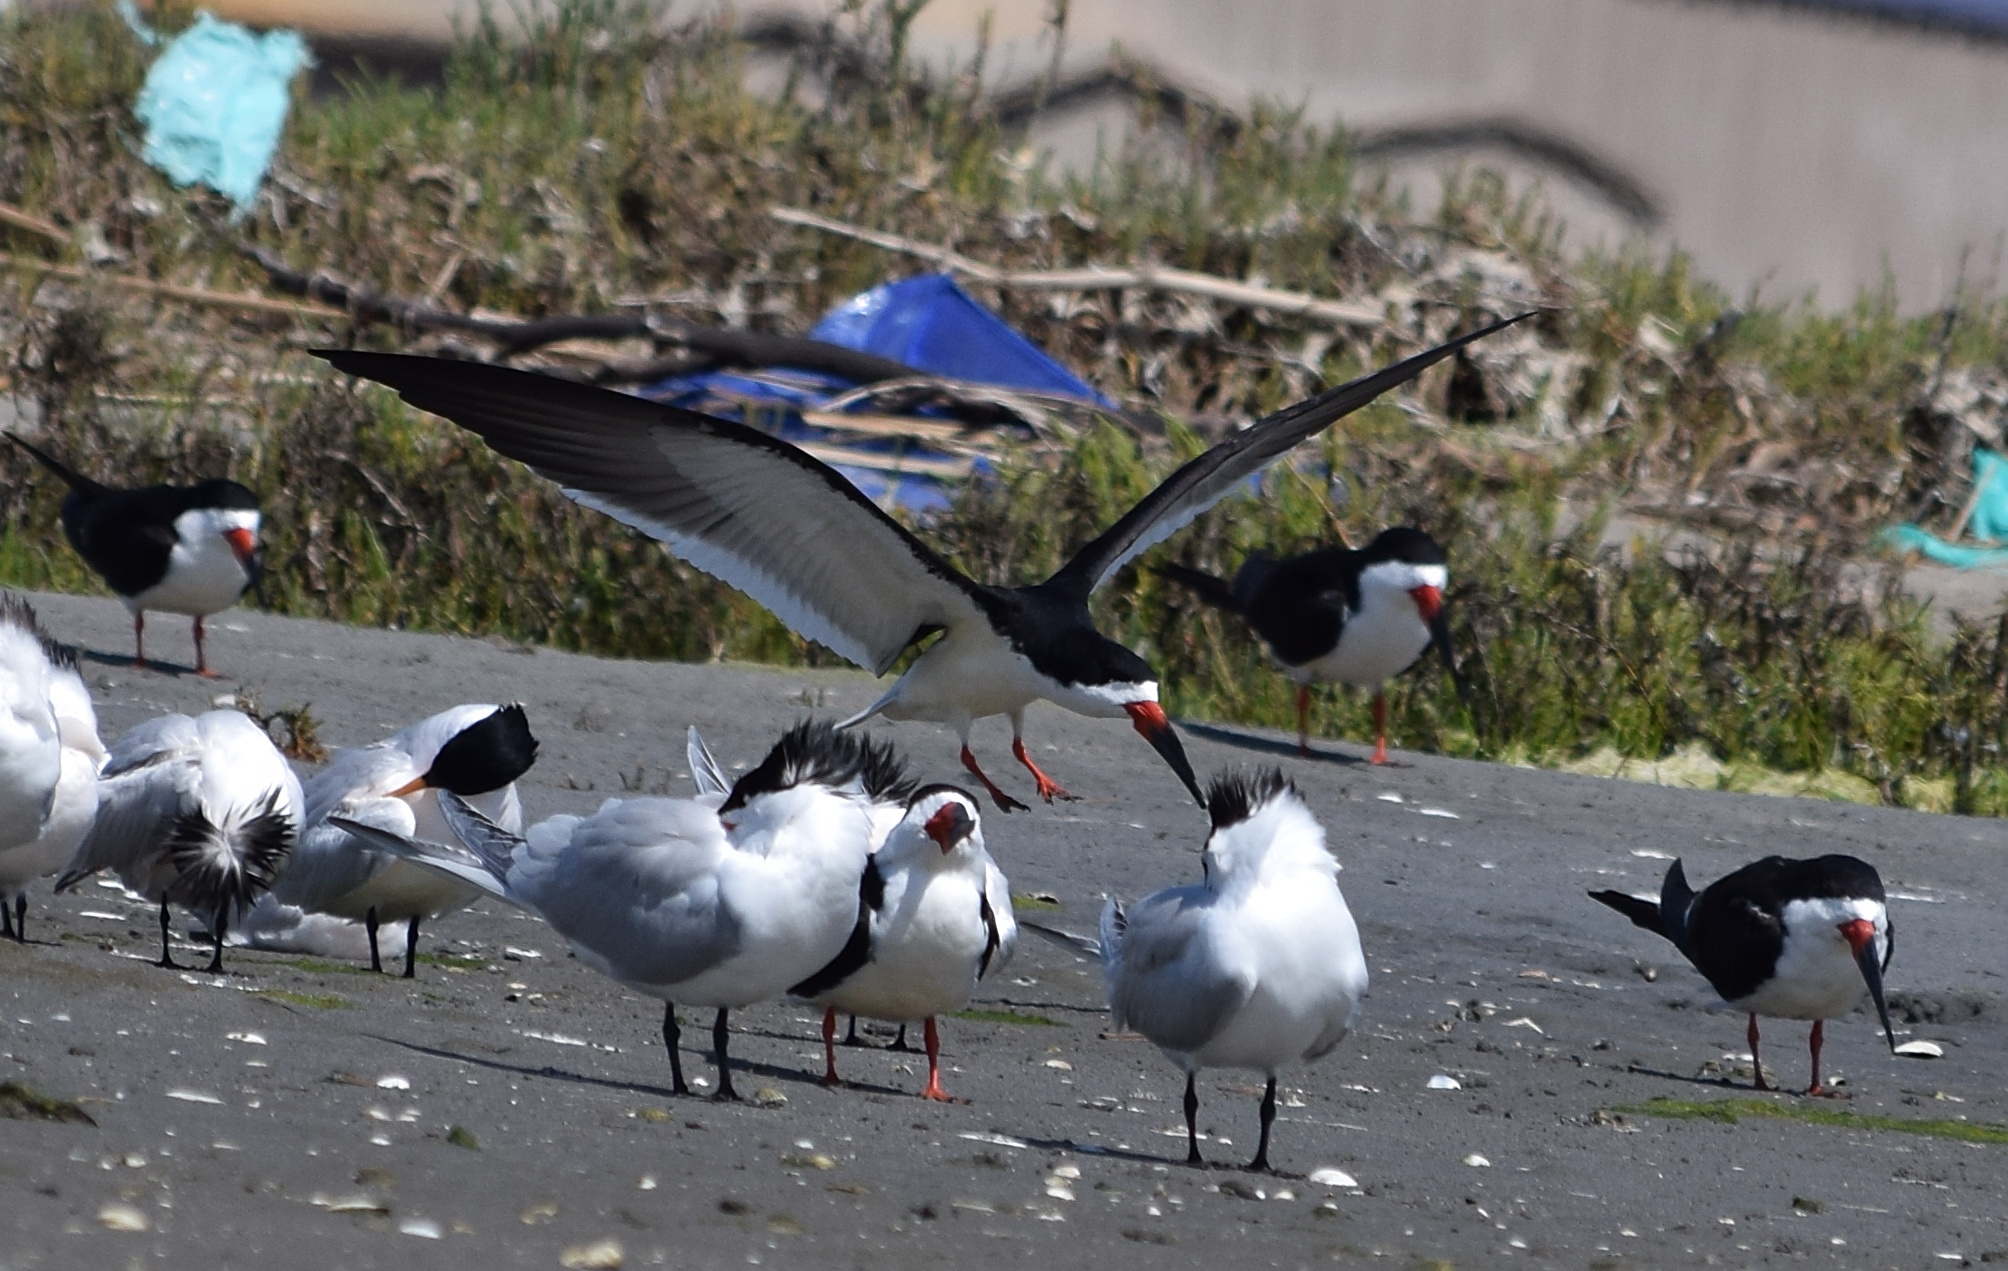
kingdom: Animalia
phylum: Chordata
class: Aves
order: Charadriiformes
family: Laridae
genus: Rynchops
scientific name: Rynchops niger
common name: Black skimmer
